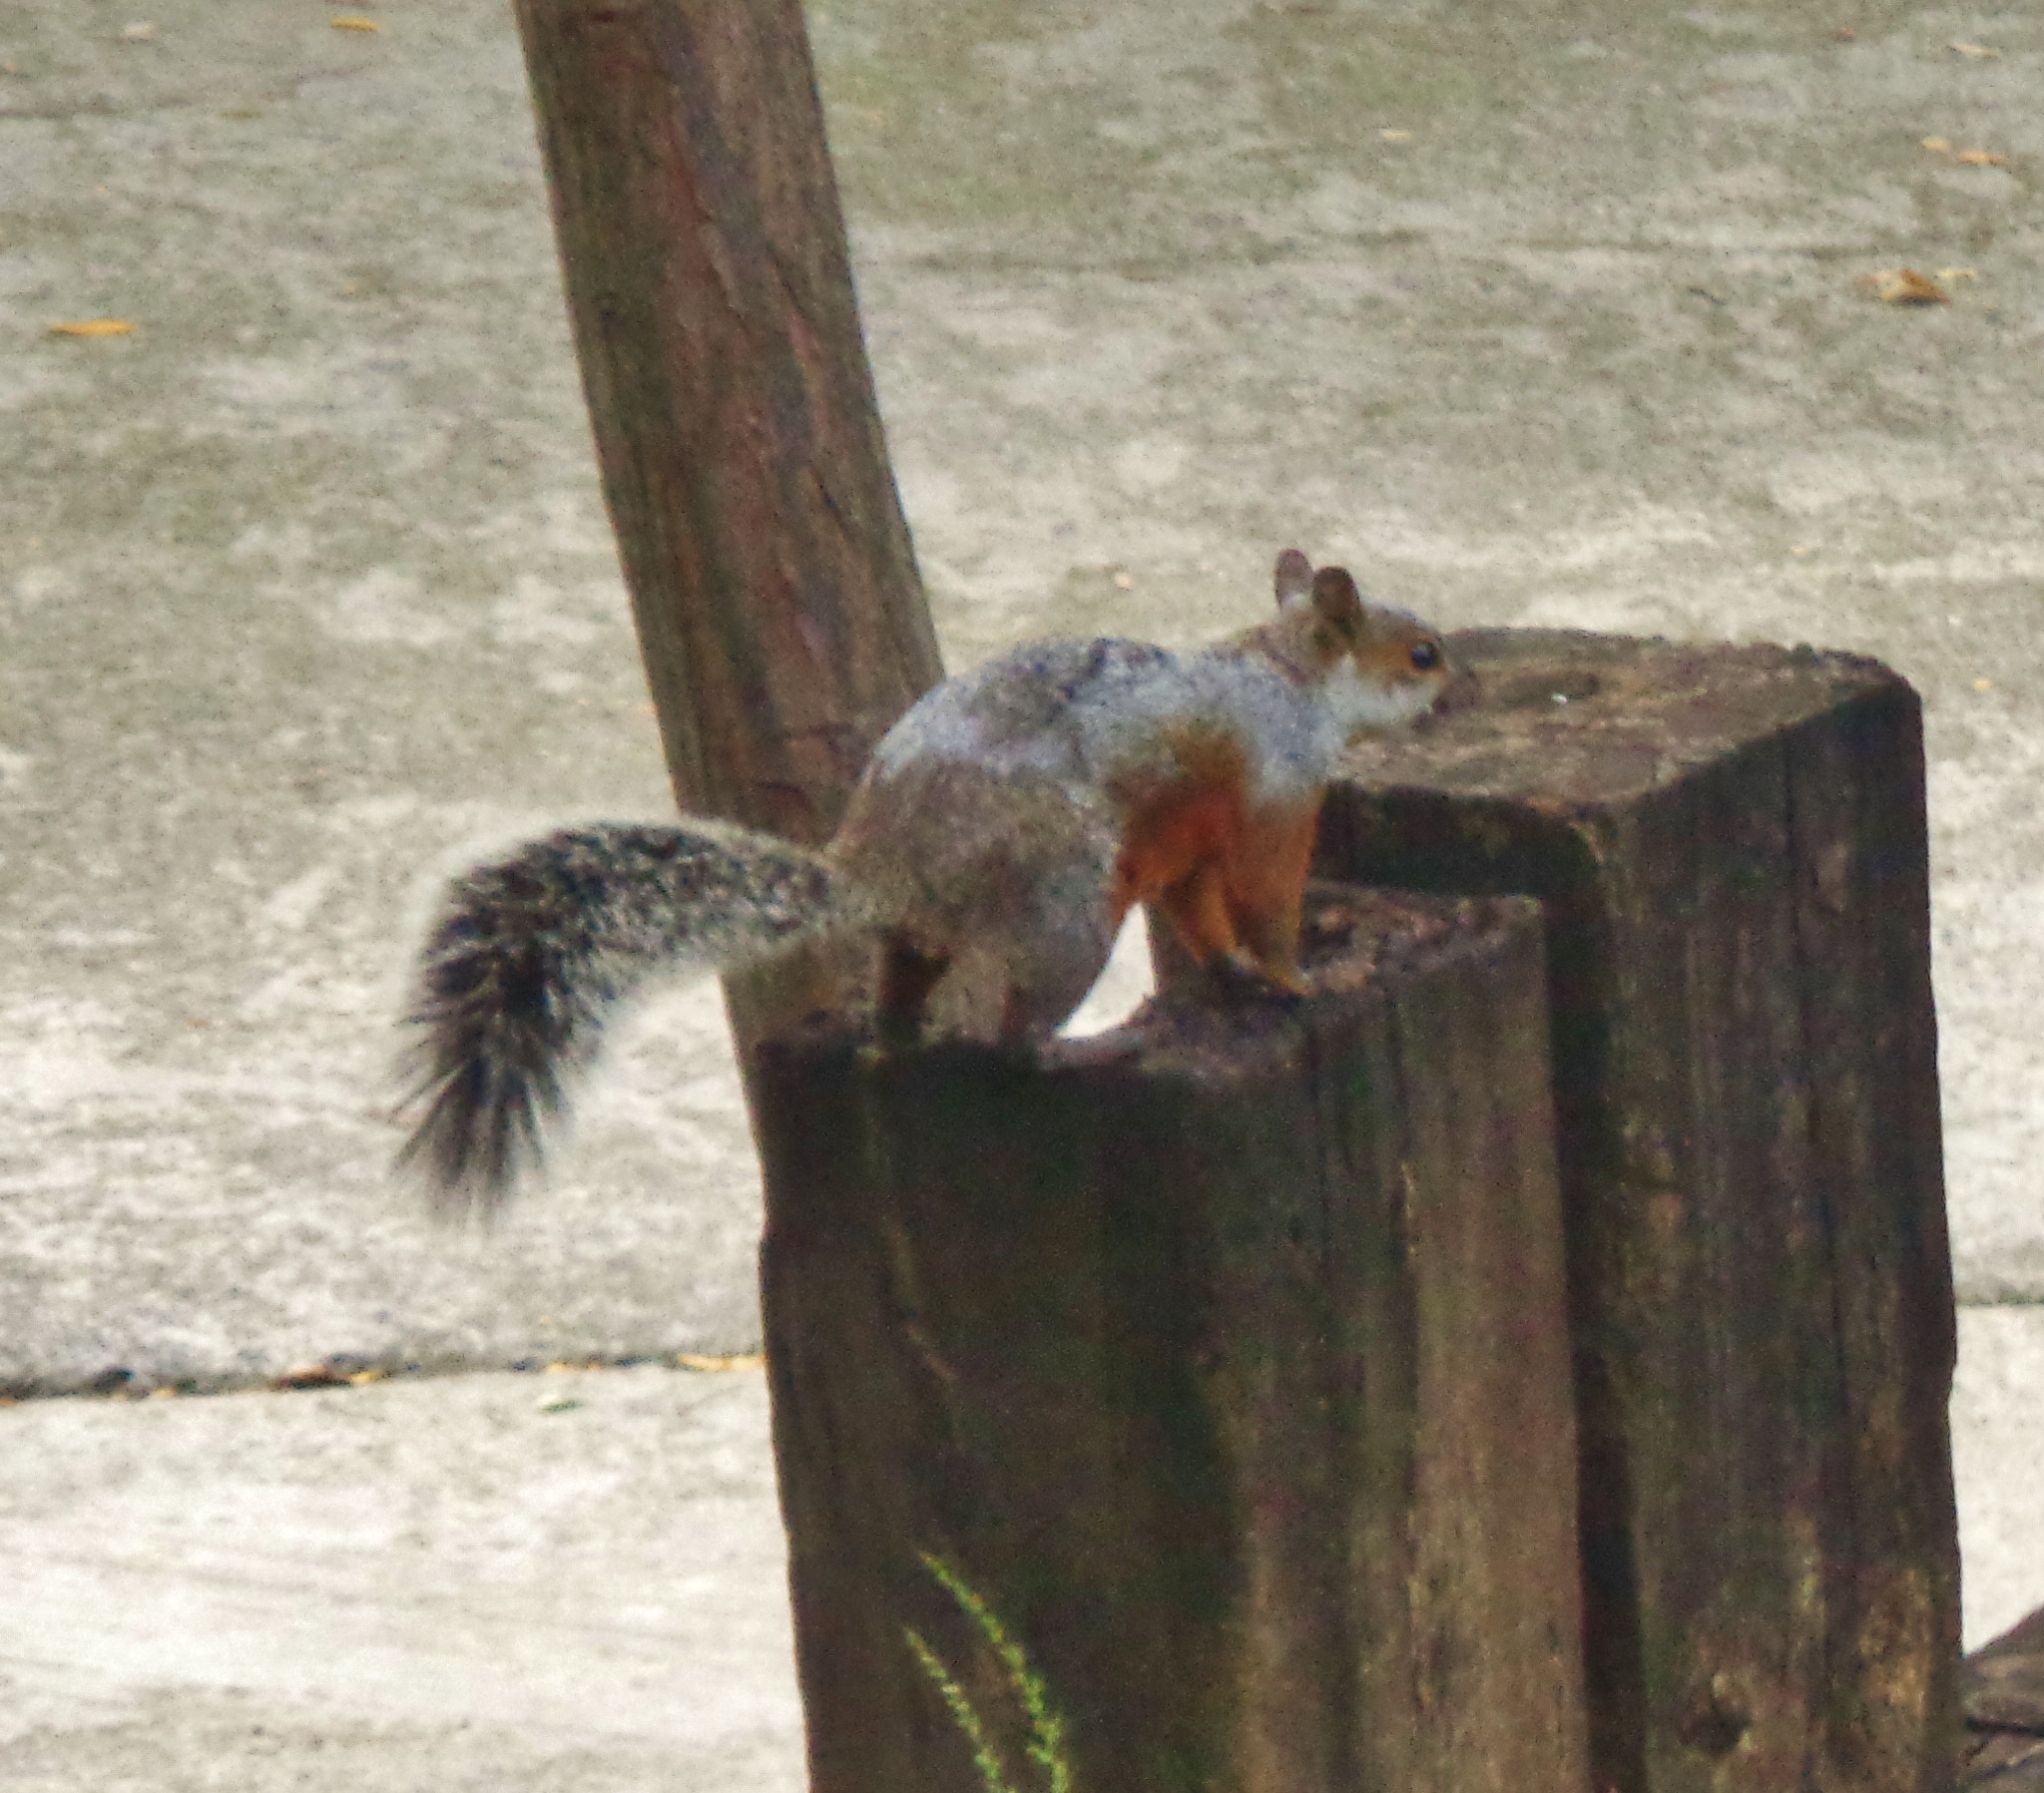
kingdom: Animalia
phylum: Chordata
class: Mammalia
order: Rodentia
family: Sciuridae
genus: Sciurus
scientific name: Sciurus aureogaster
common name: Red-bellied squirrel
